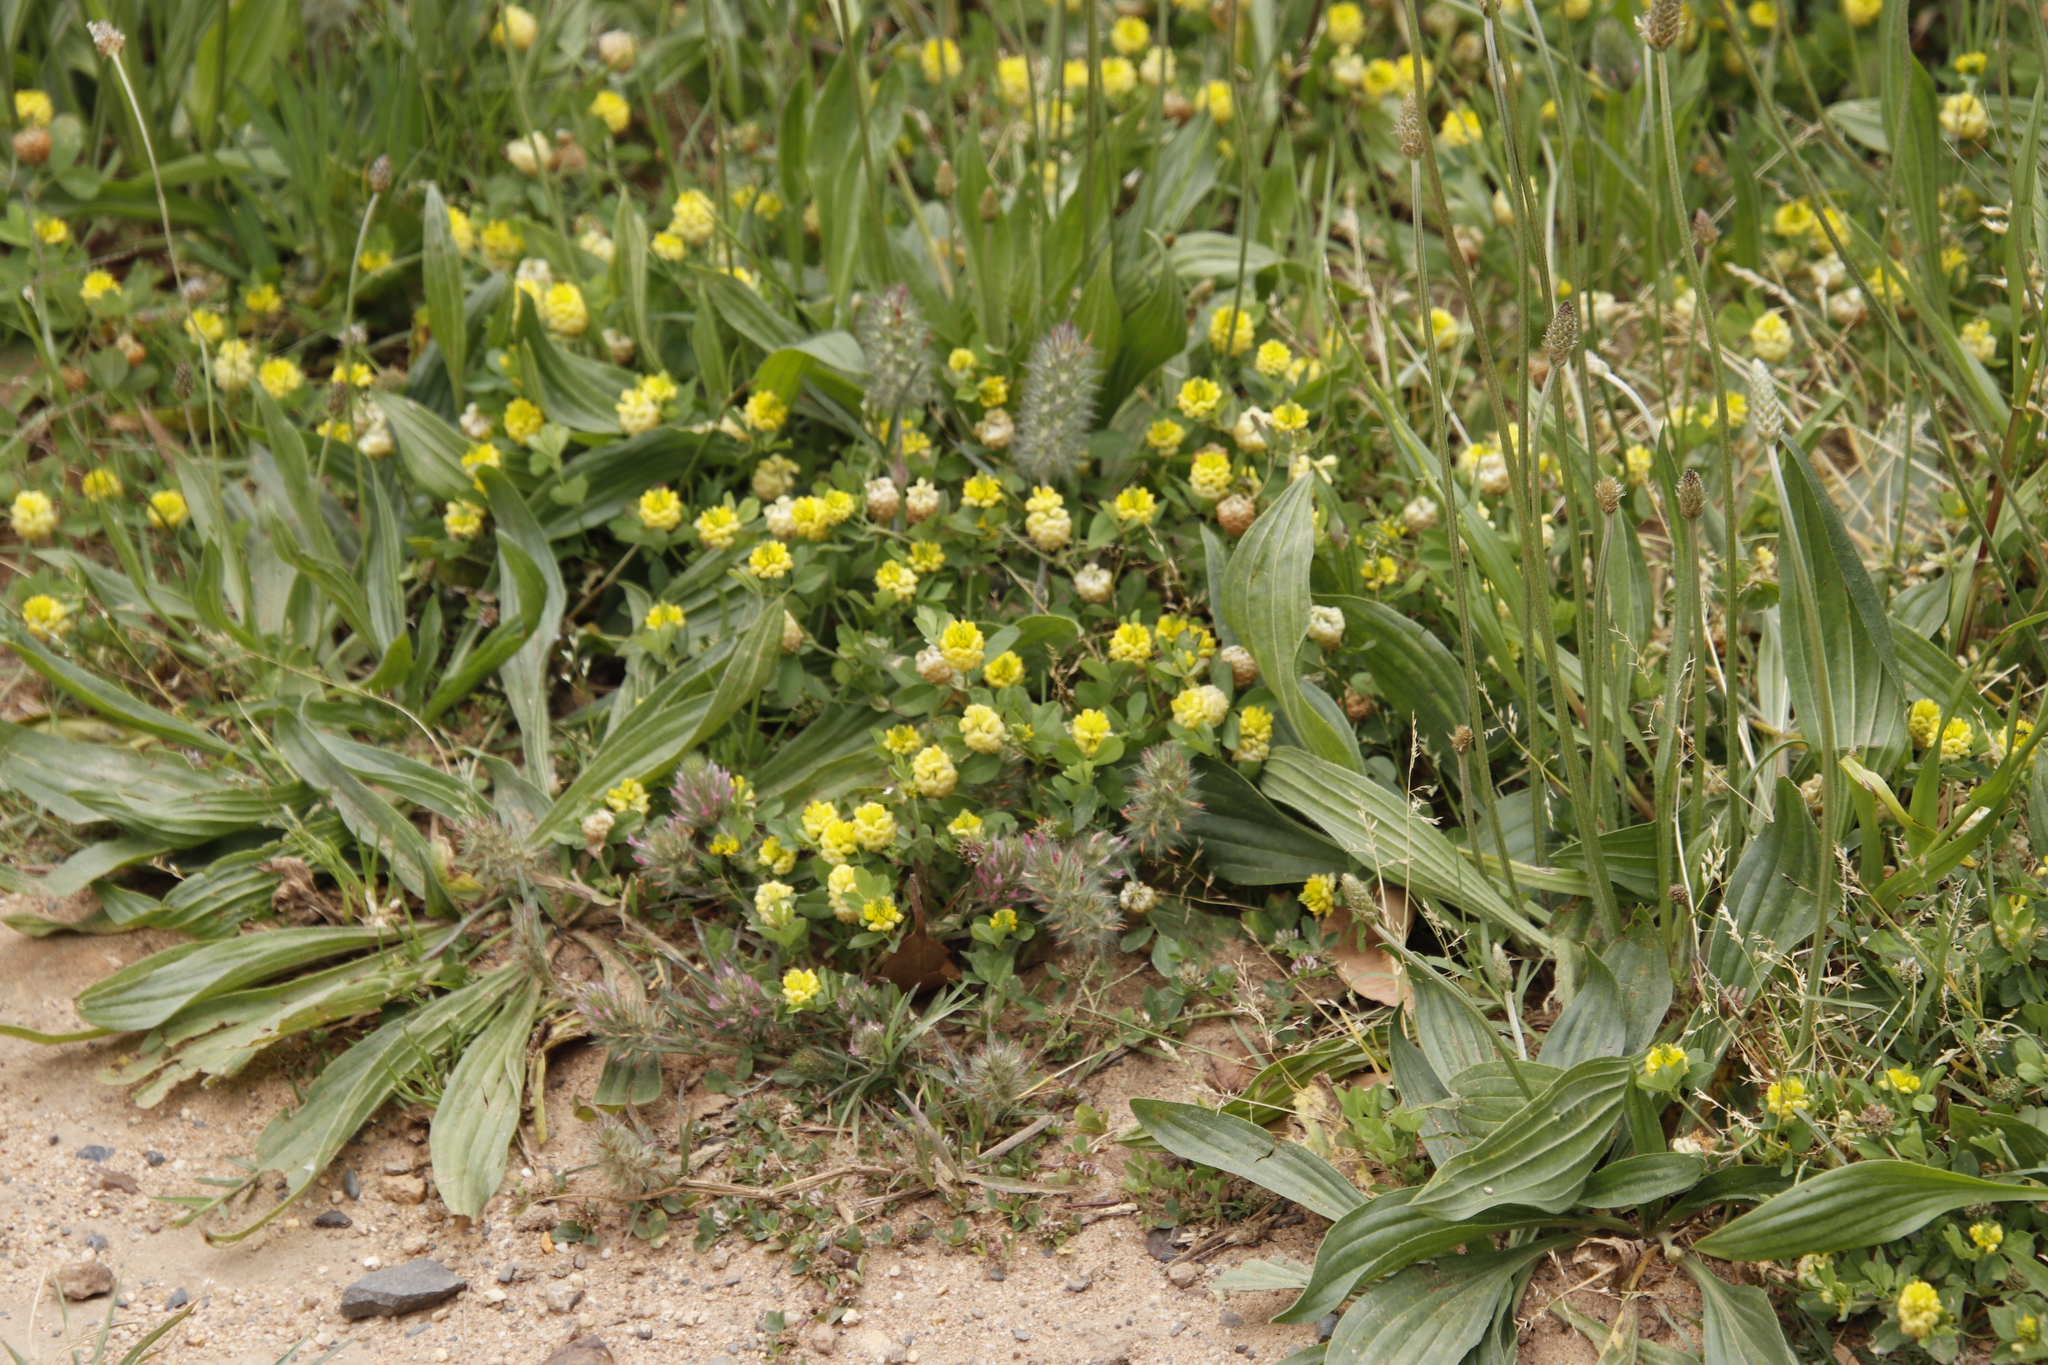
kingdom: Plantae
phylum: Tracheophyta
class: Magnoliopsida
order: Fabales
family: Fabaceae
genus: Trifolium
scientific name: Trifolium campestre
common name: Field clover
